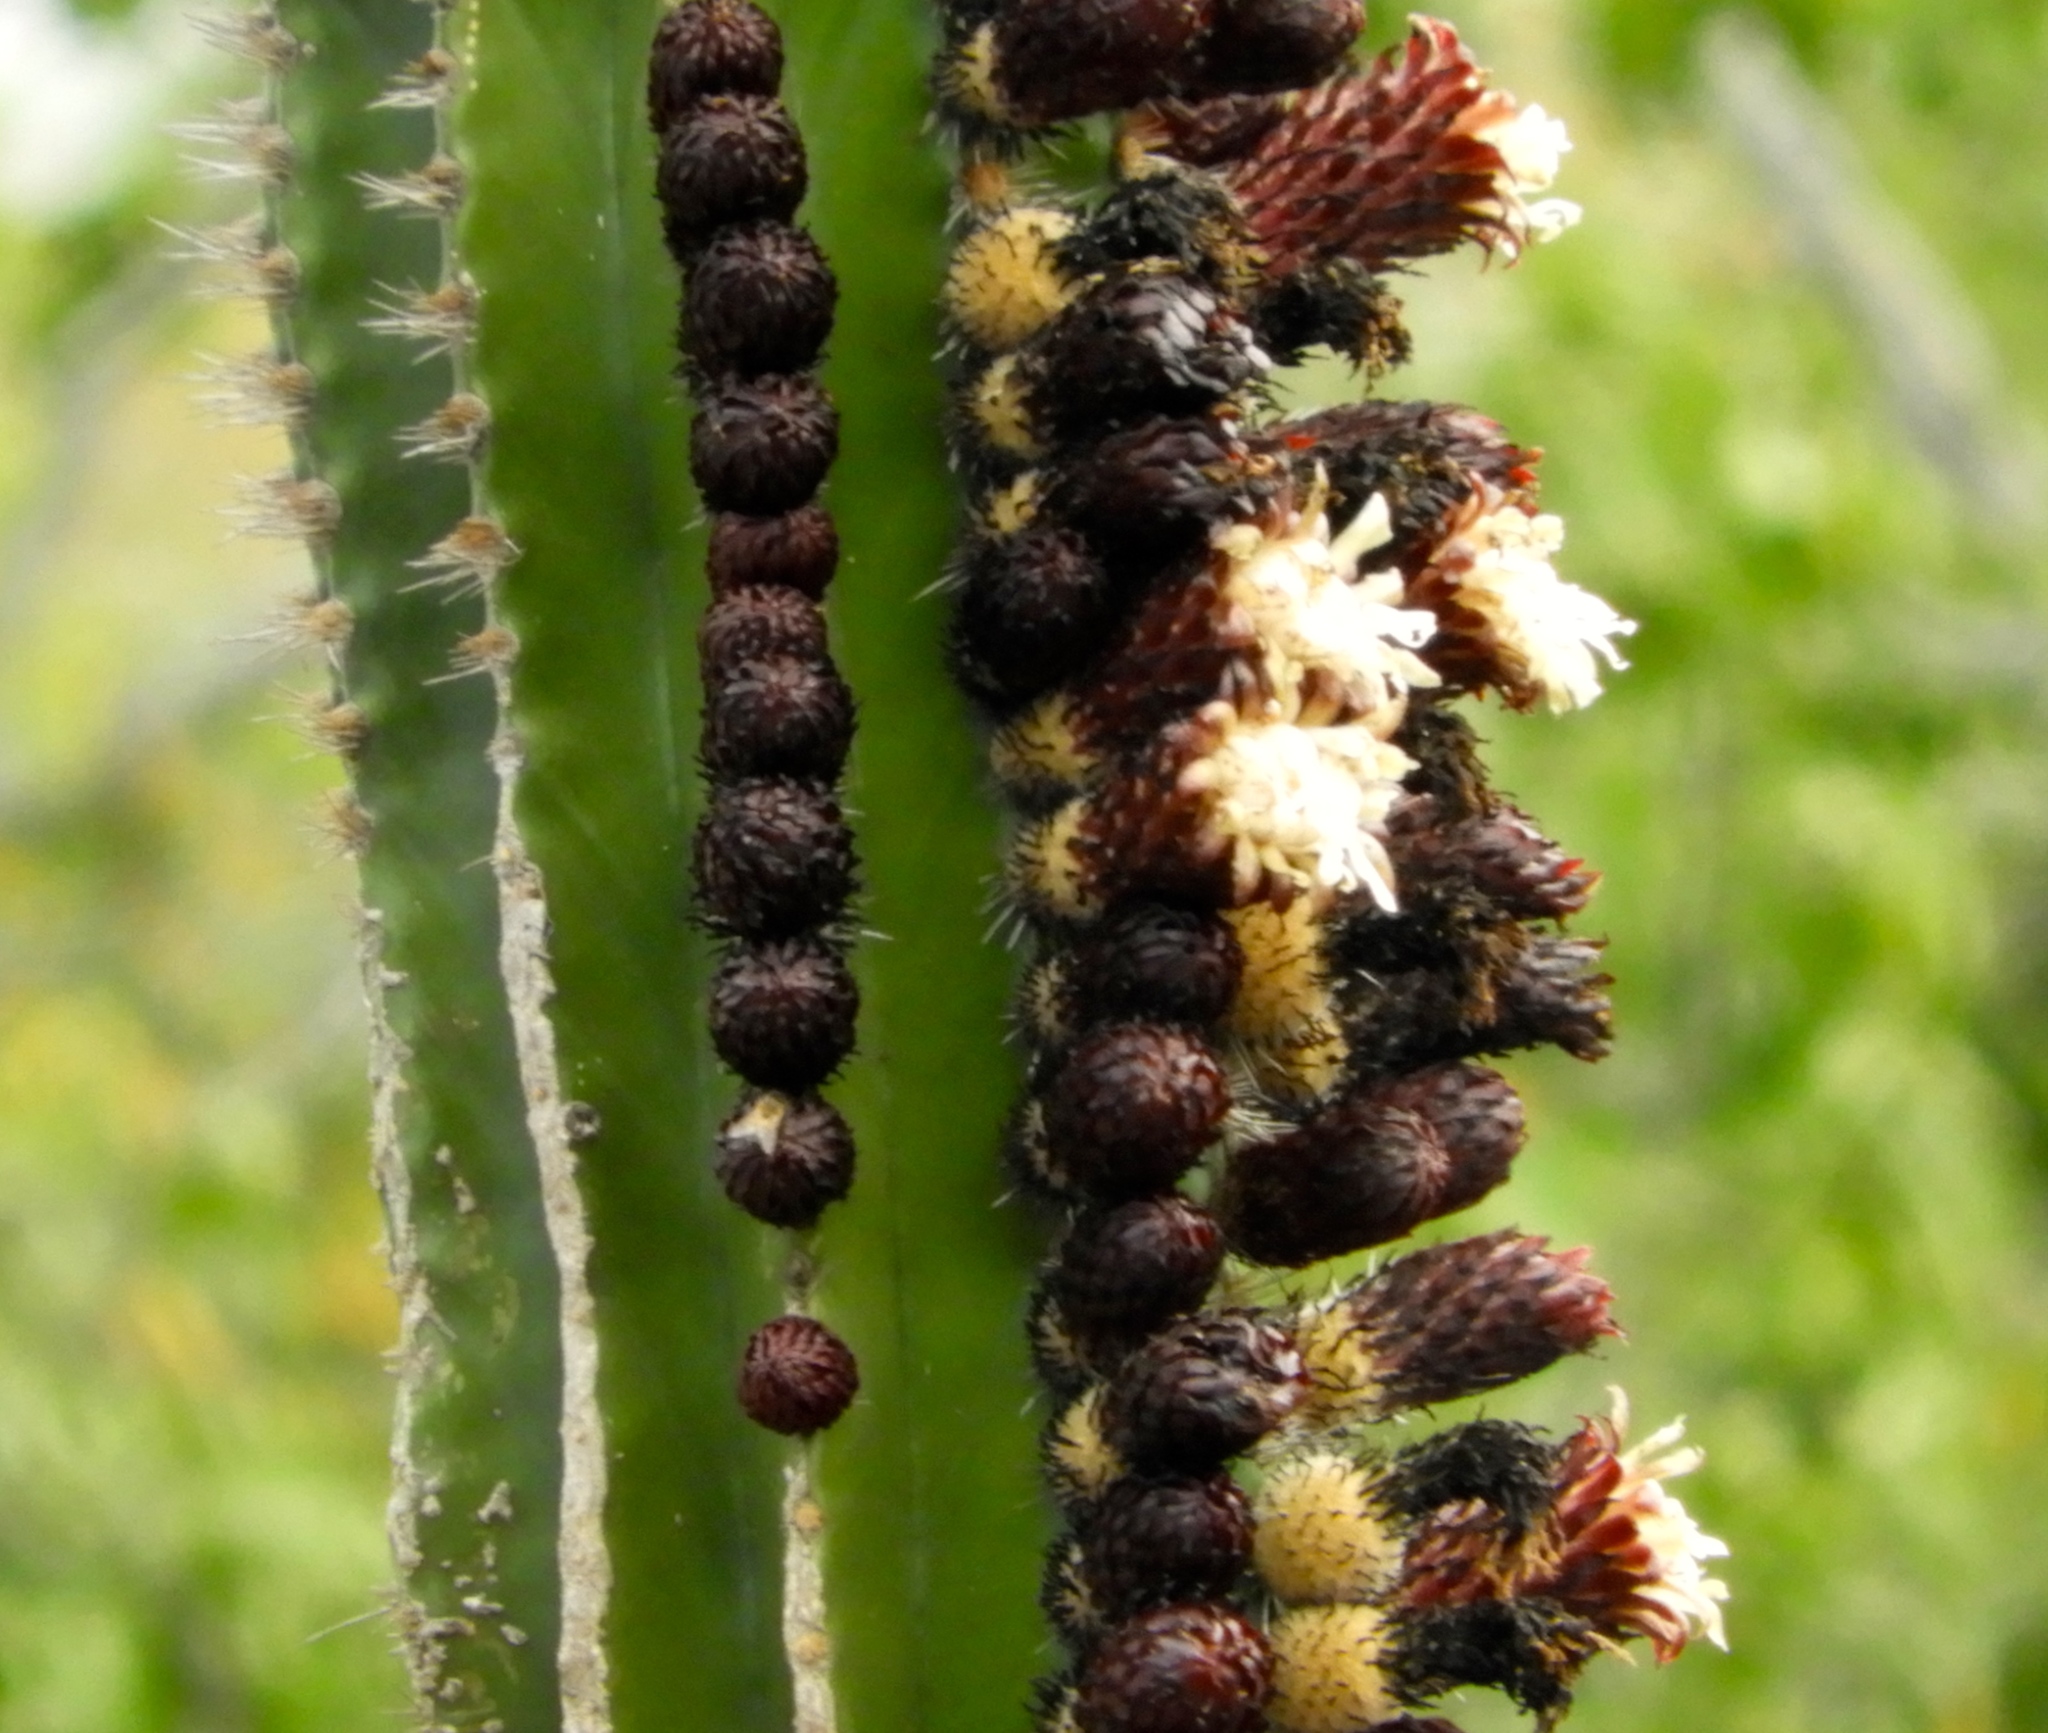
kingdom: Plantae
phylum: Tracheophyta
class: Magnoliopsida
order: Caryophyllales
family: Cactaceae
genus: Pachycereus
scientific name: Pachycereus pecten-aboriginum
